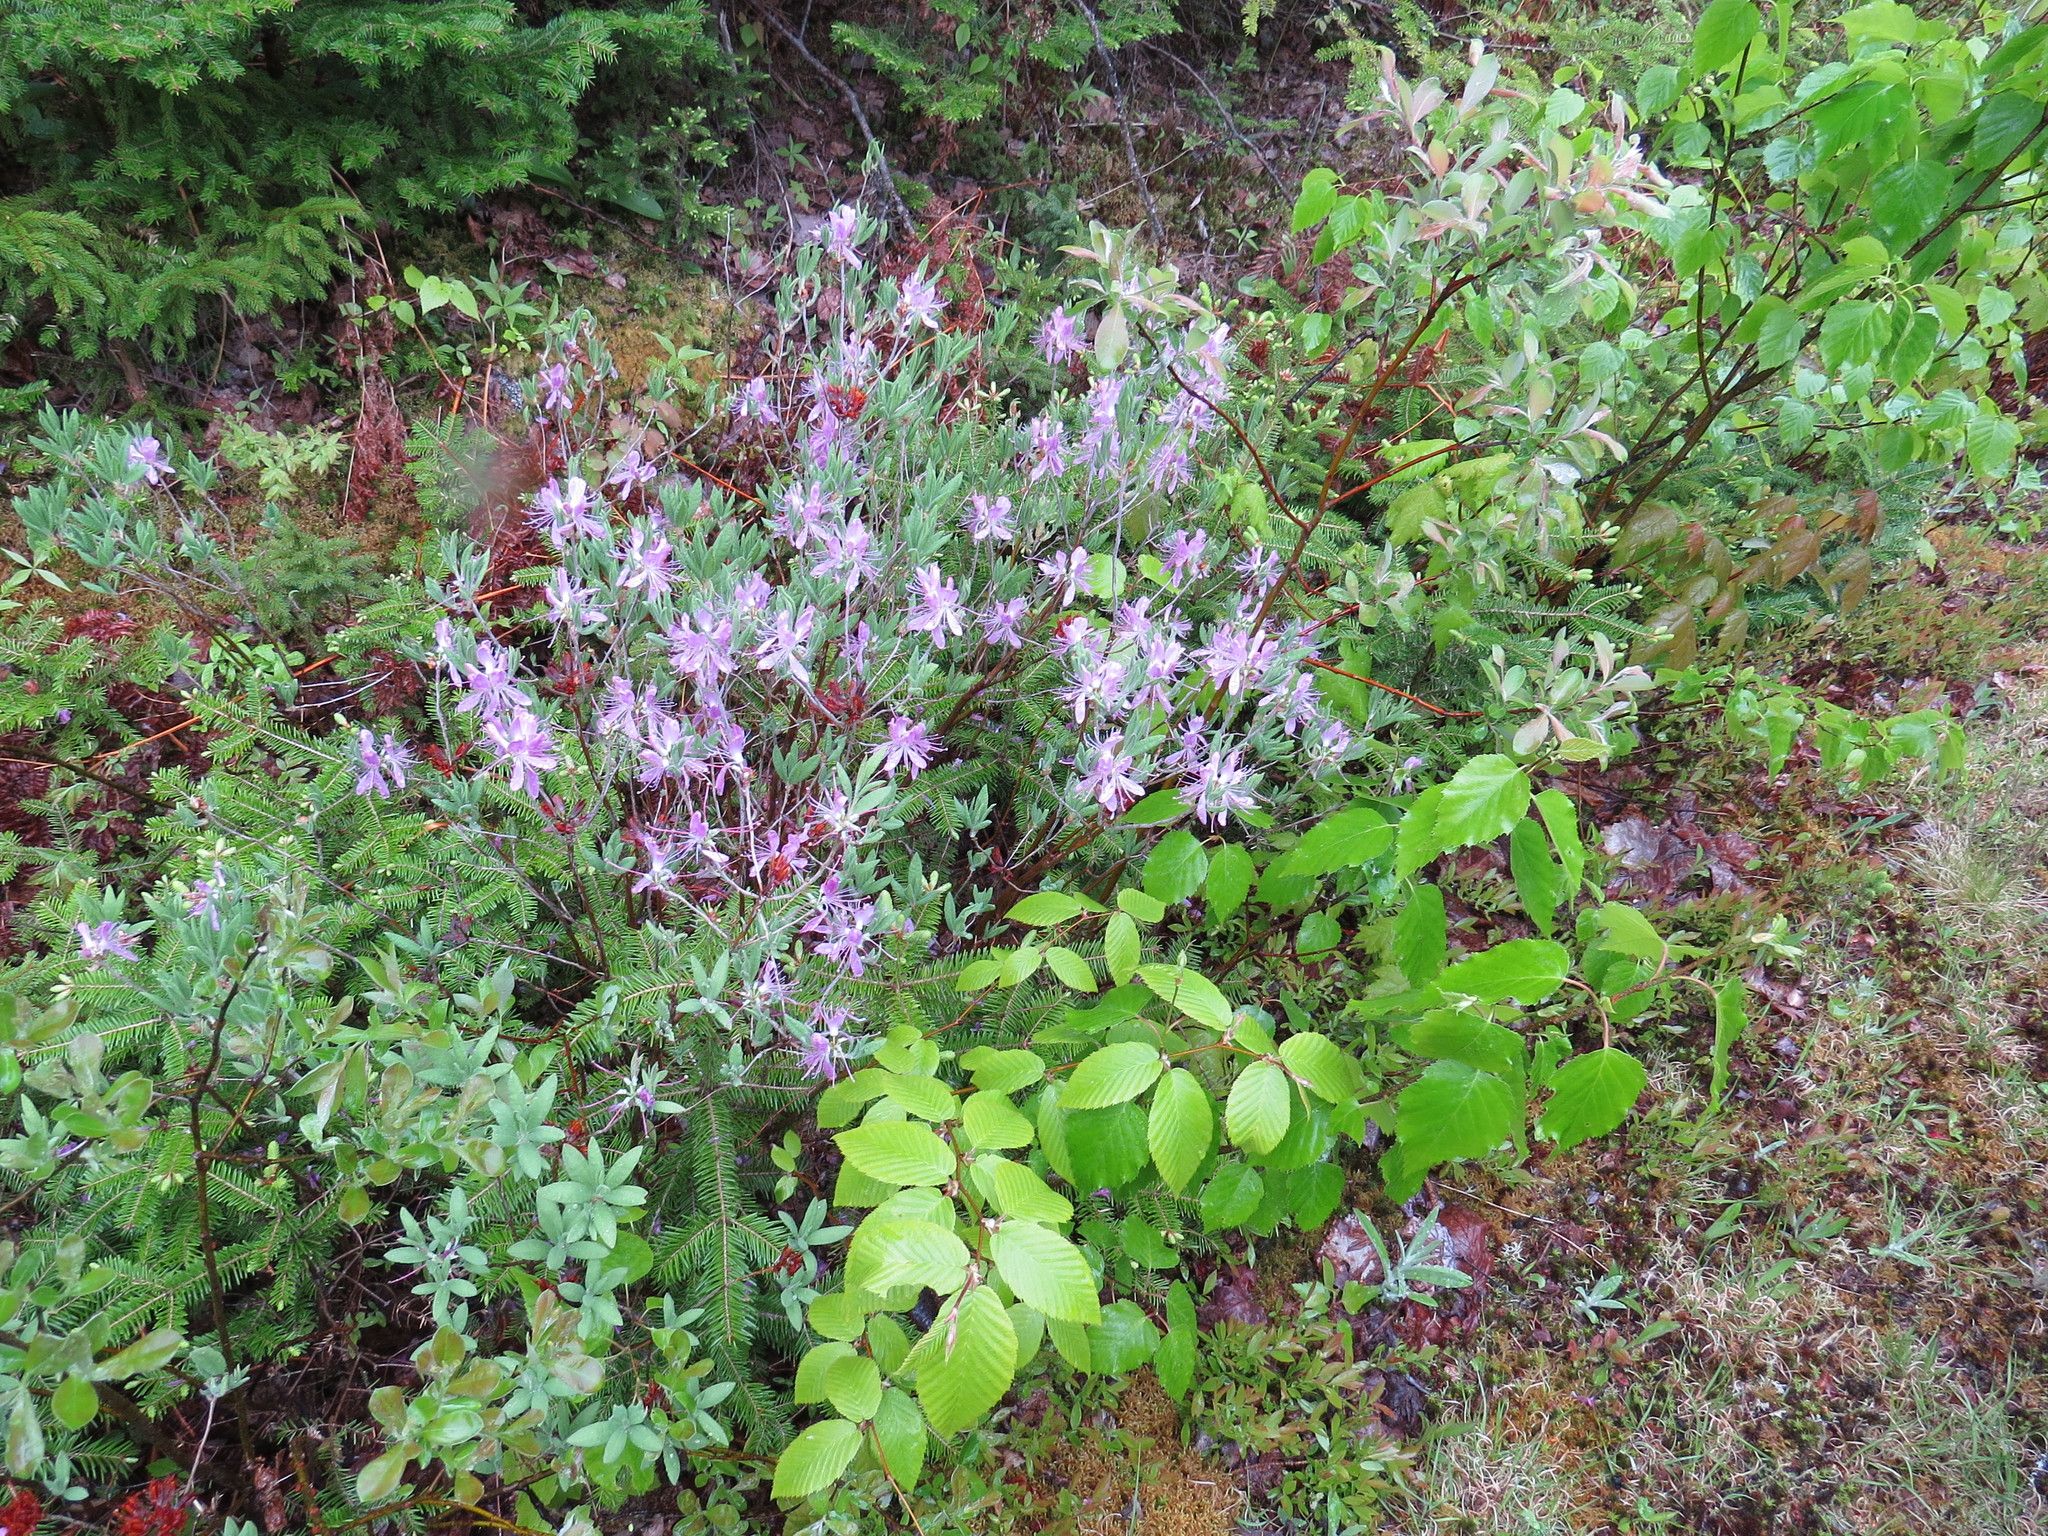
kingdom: Plantae
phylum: Tracheophyta
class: Magnoliopsida
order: Ericales
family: Ericaceae
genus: Rhododendron
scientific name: Rhododendron canadense
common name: Rhodora
